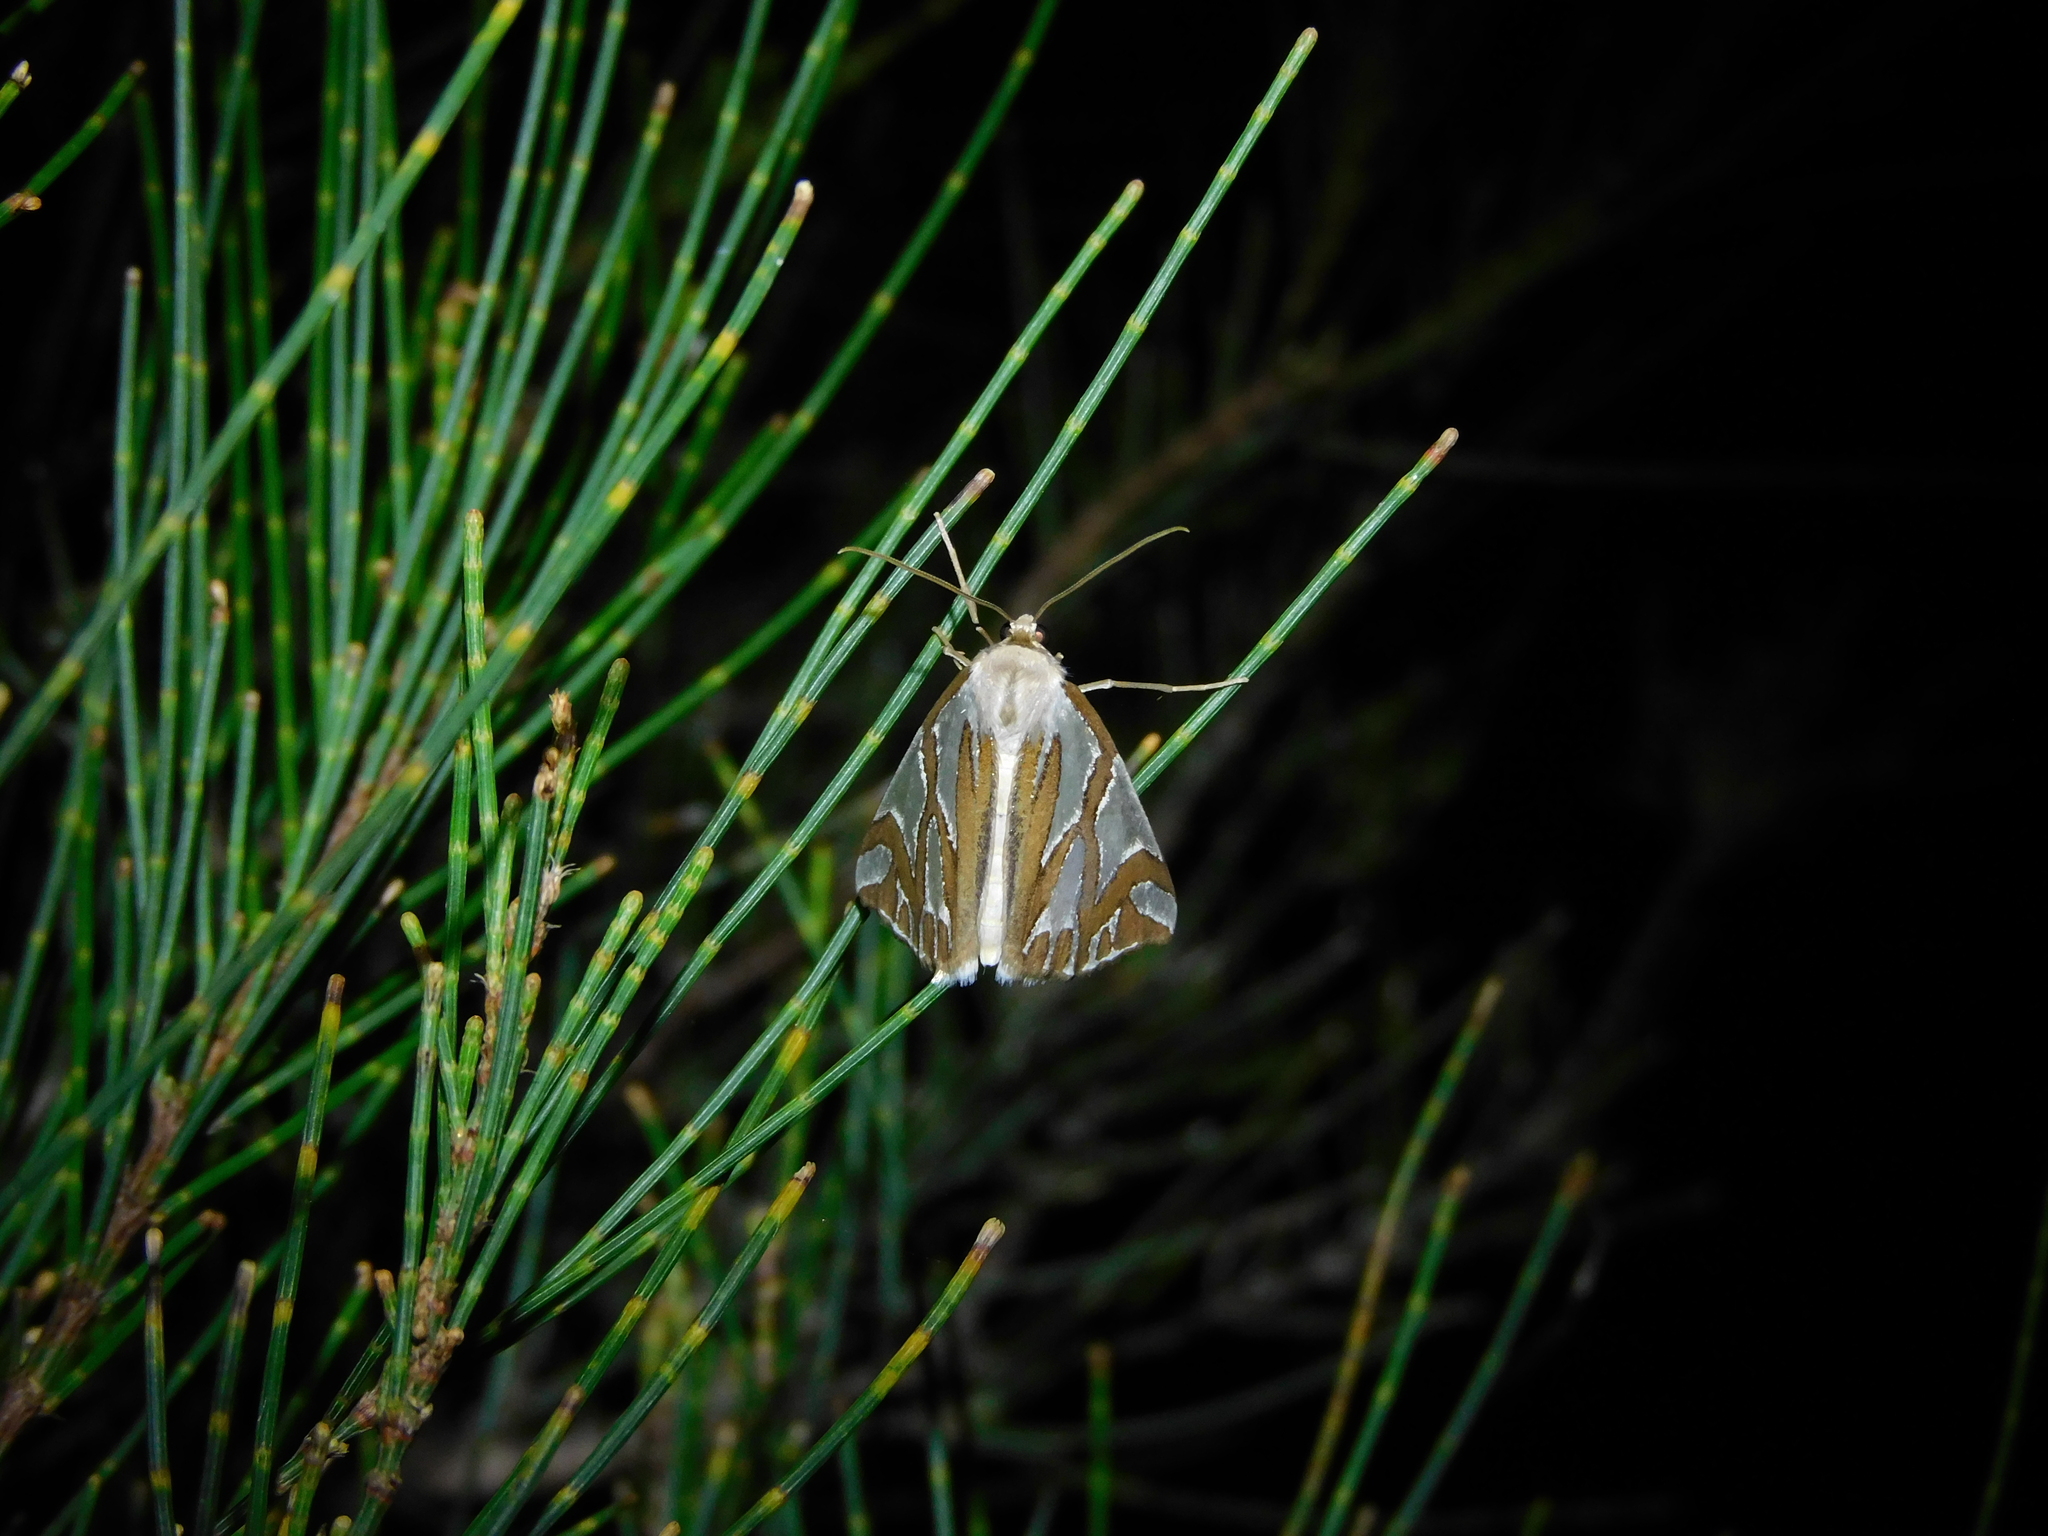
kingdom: Animalia
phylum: Arthropoda
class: Insecta
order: Lepidoptera
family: Geometridae
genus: Thalaina
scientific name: Thalaina inscripta
